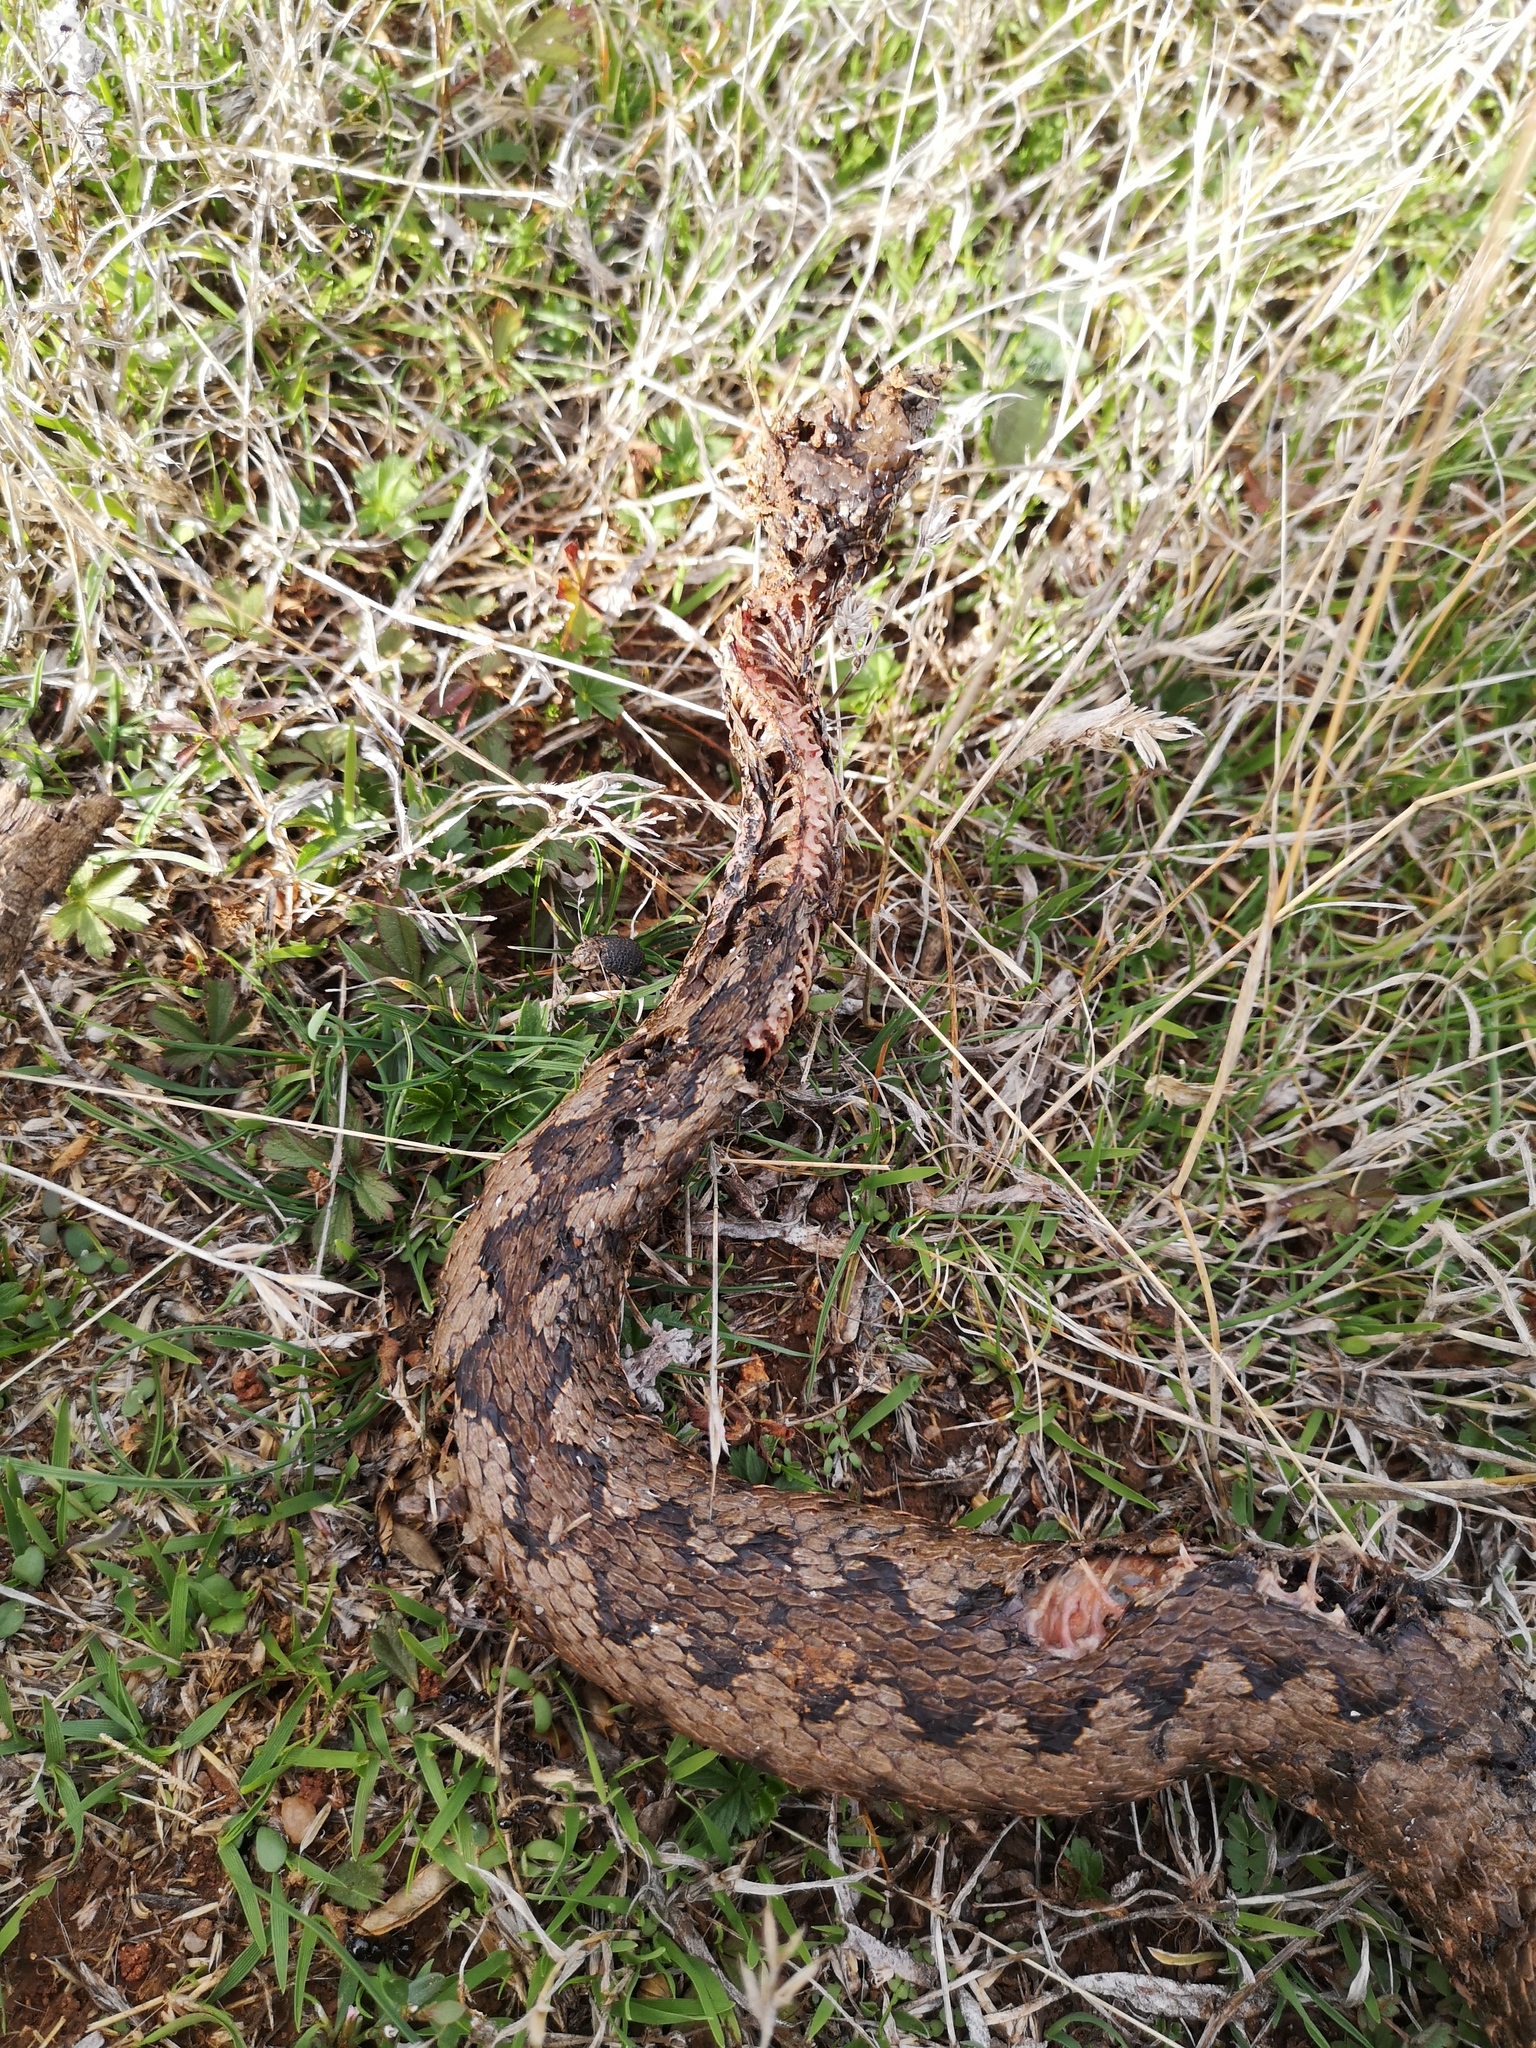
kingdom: Animalia
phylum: Chordata
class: Squamata
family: Viperidae
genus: Vipera
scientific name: Vipera latastei
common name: Lataste's viper
